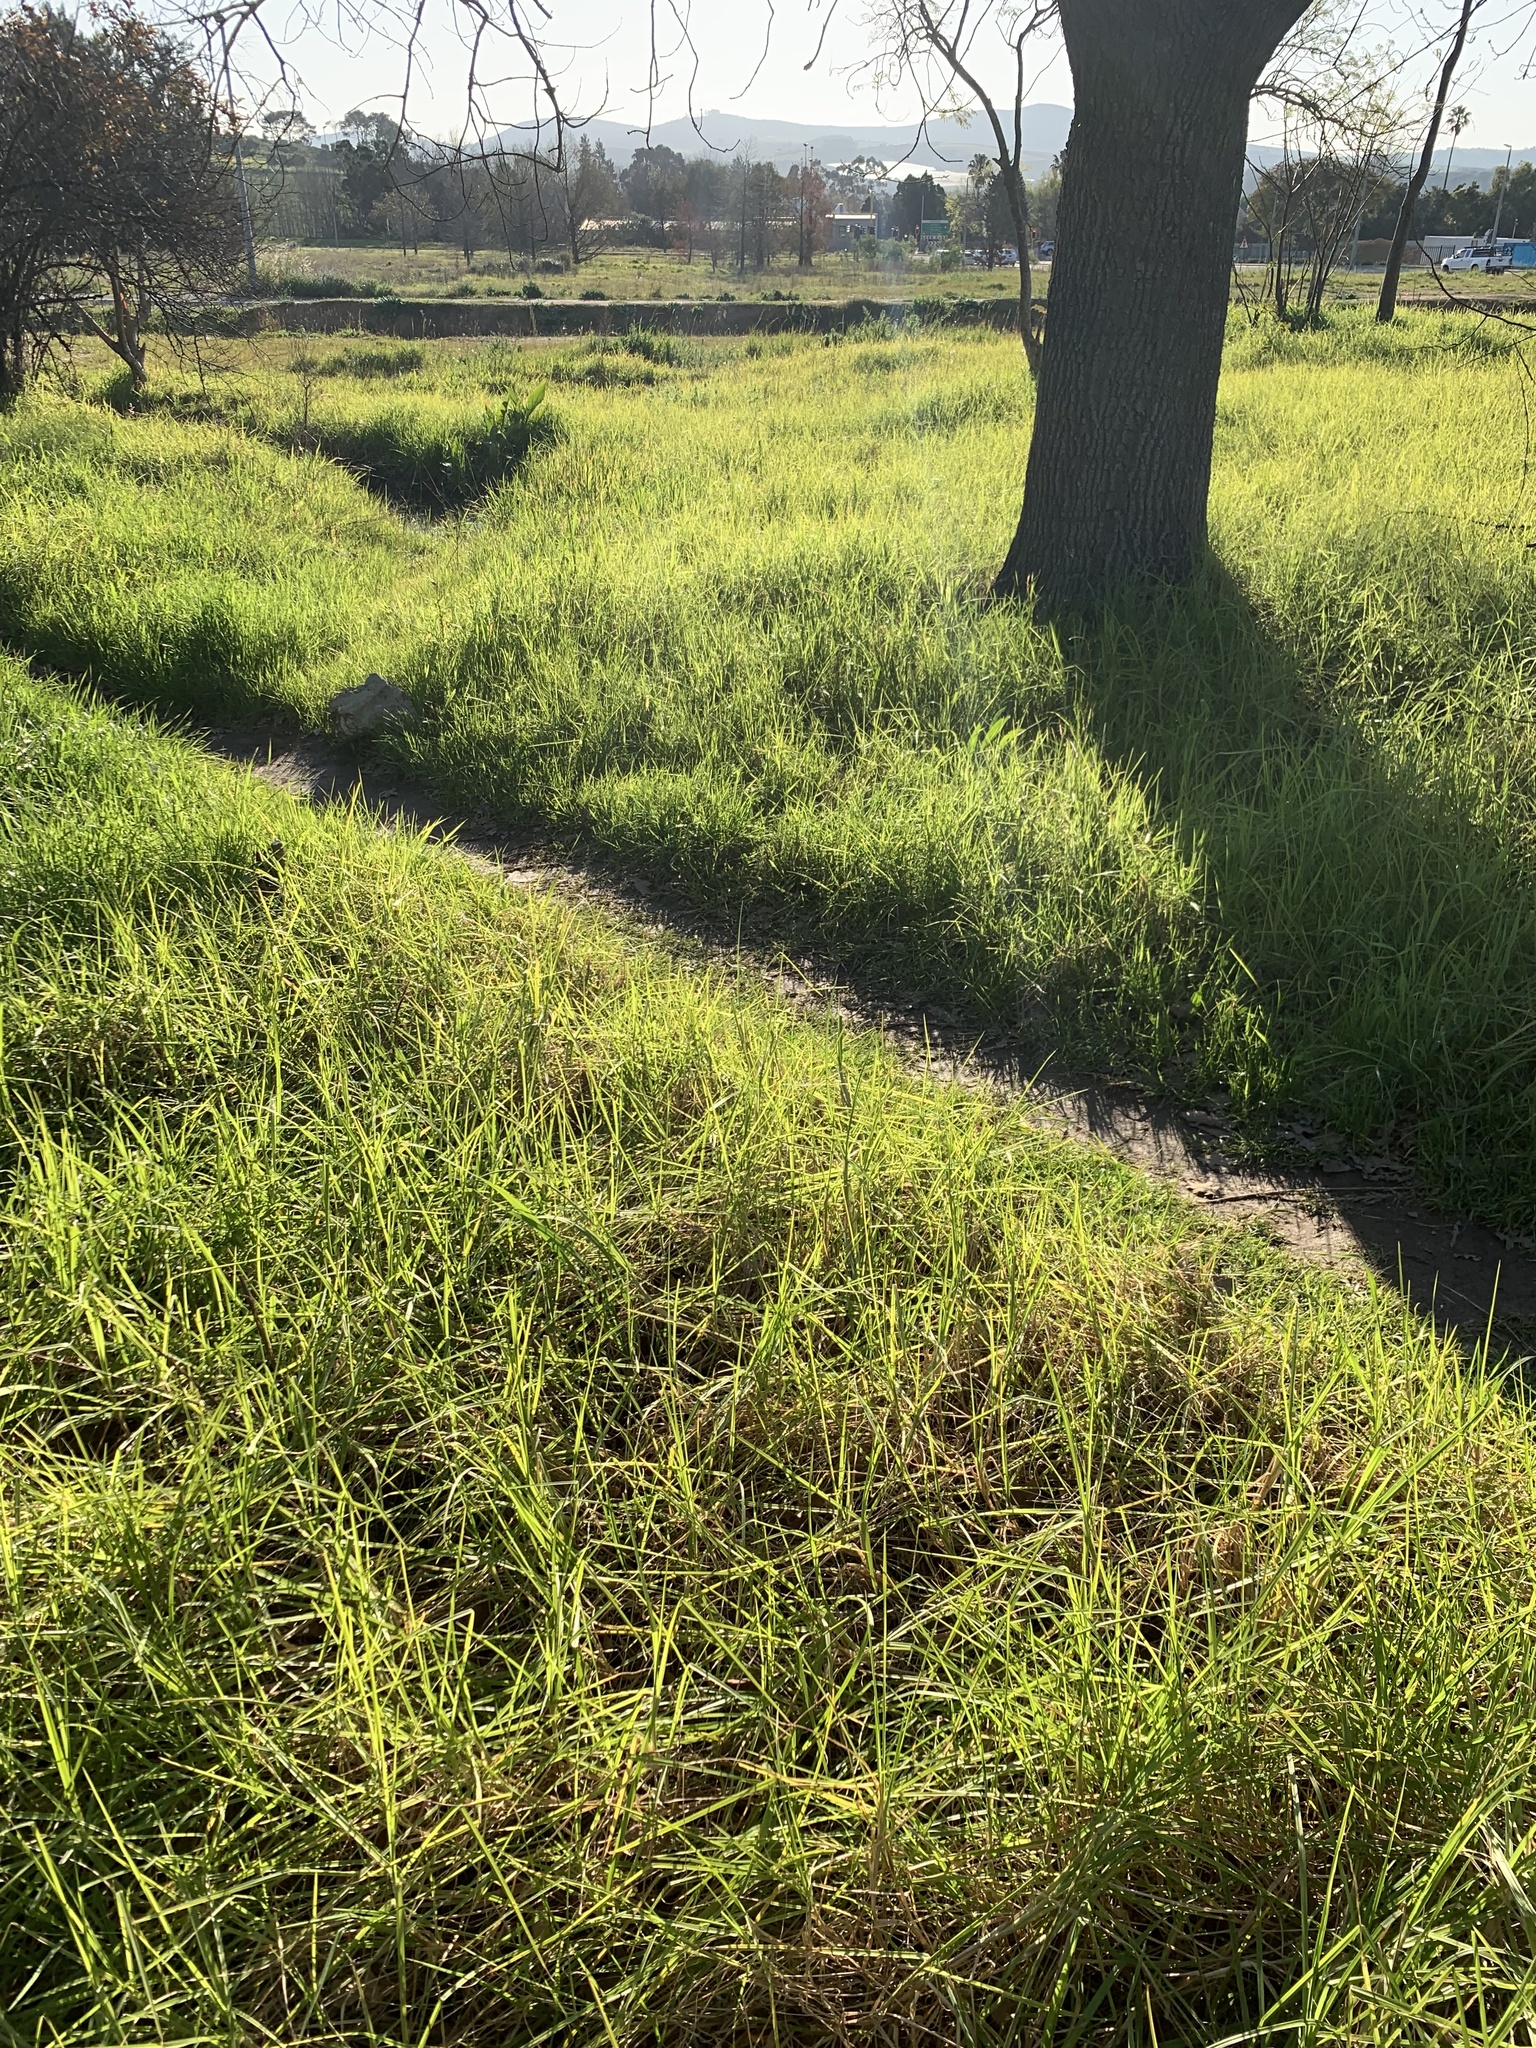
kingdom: Plantae
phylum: Tracheophyta
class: Liliopsida
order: Poales
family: Poaceae
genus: Cenchrus
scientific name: Cenchrus clandestinus
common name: Kikuyugrass
